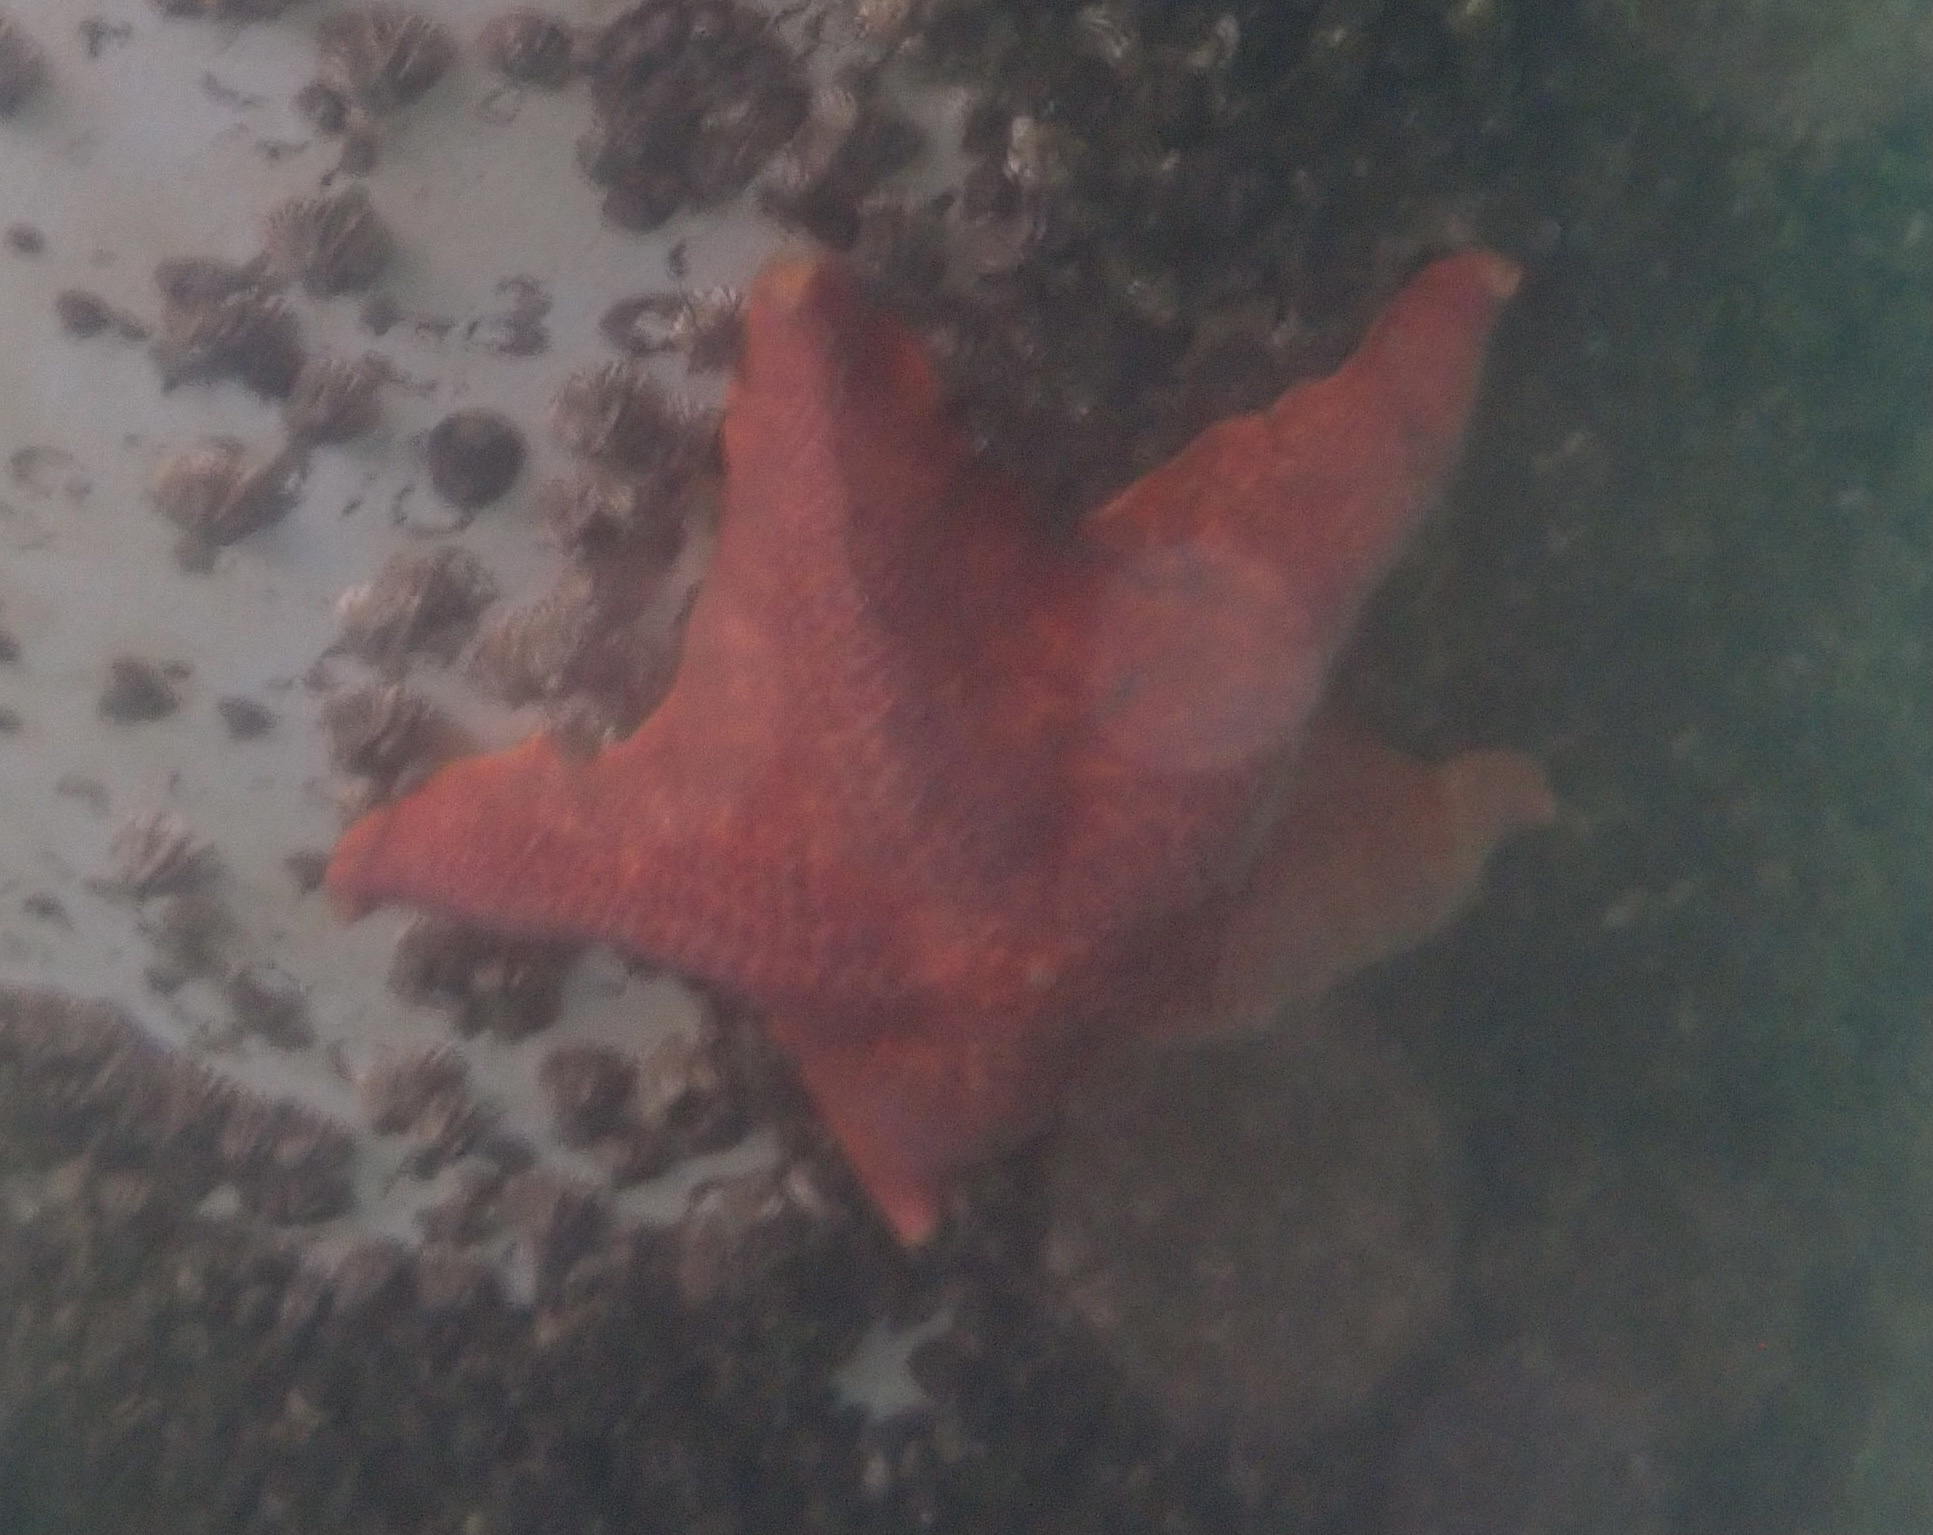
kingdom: Animalia
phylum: Echinodermata
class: Asteroidea
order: Valvatida
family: Asterinidae
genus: Patiria
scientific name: Patiria miniata
